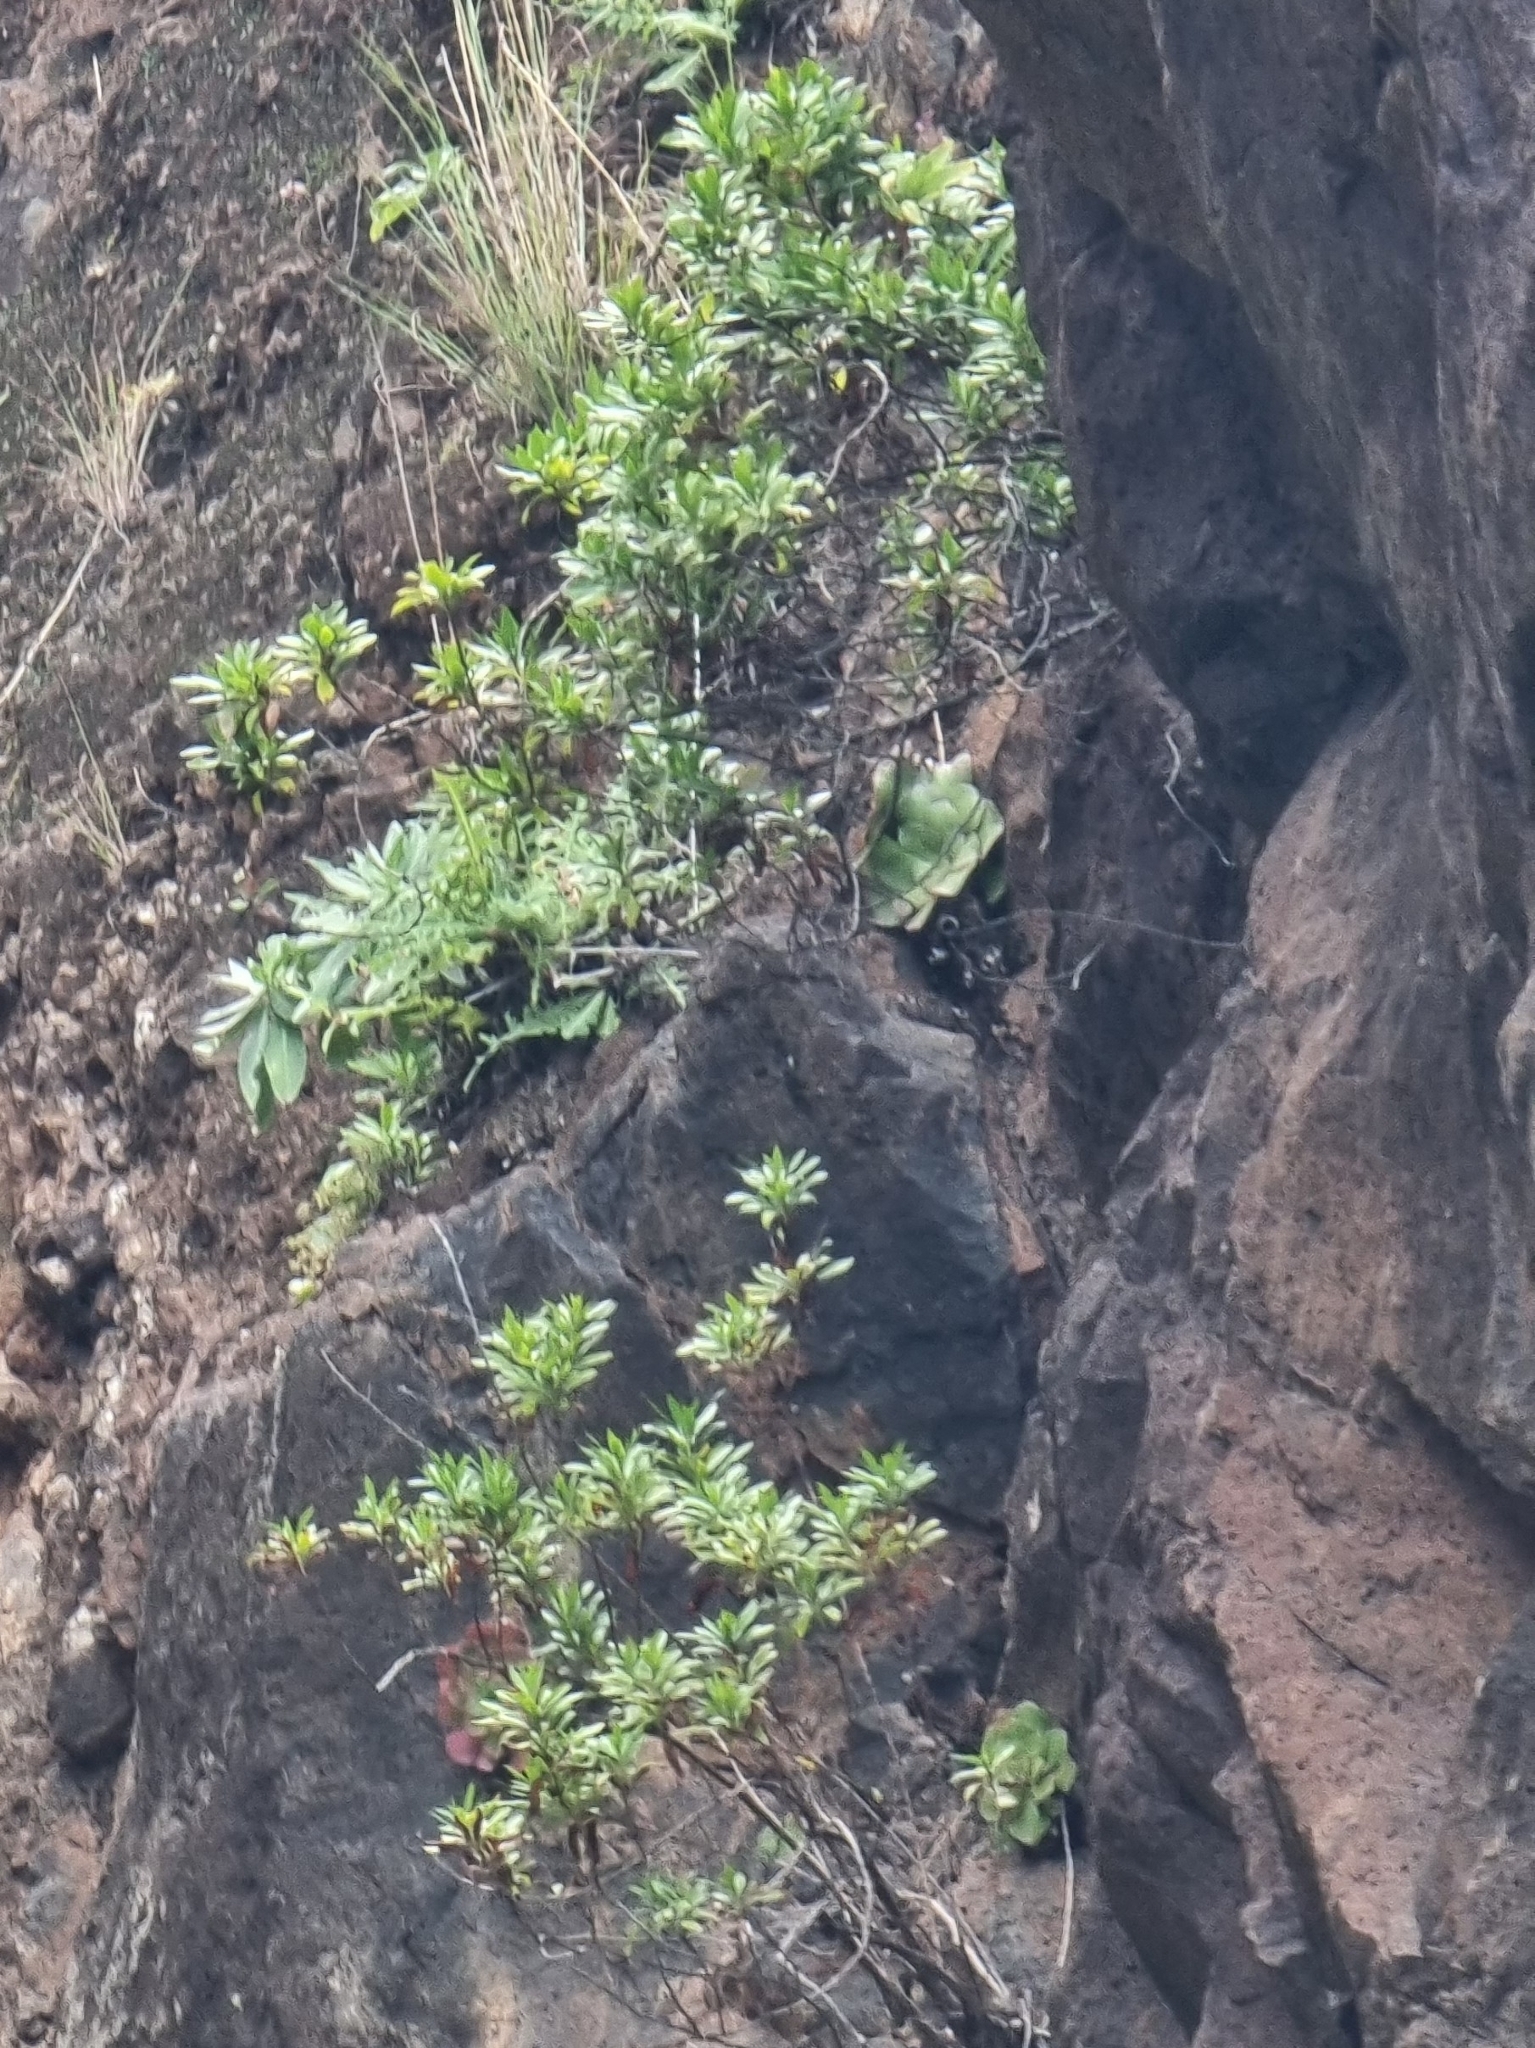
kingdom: Plantae
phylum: Tracheophyta
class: Magnoliopsida
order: Saxifragales
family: Crassulaceae
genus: Aeonium
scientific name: Aeonium glandulosum
